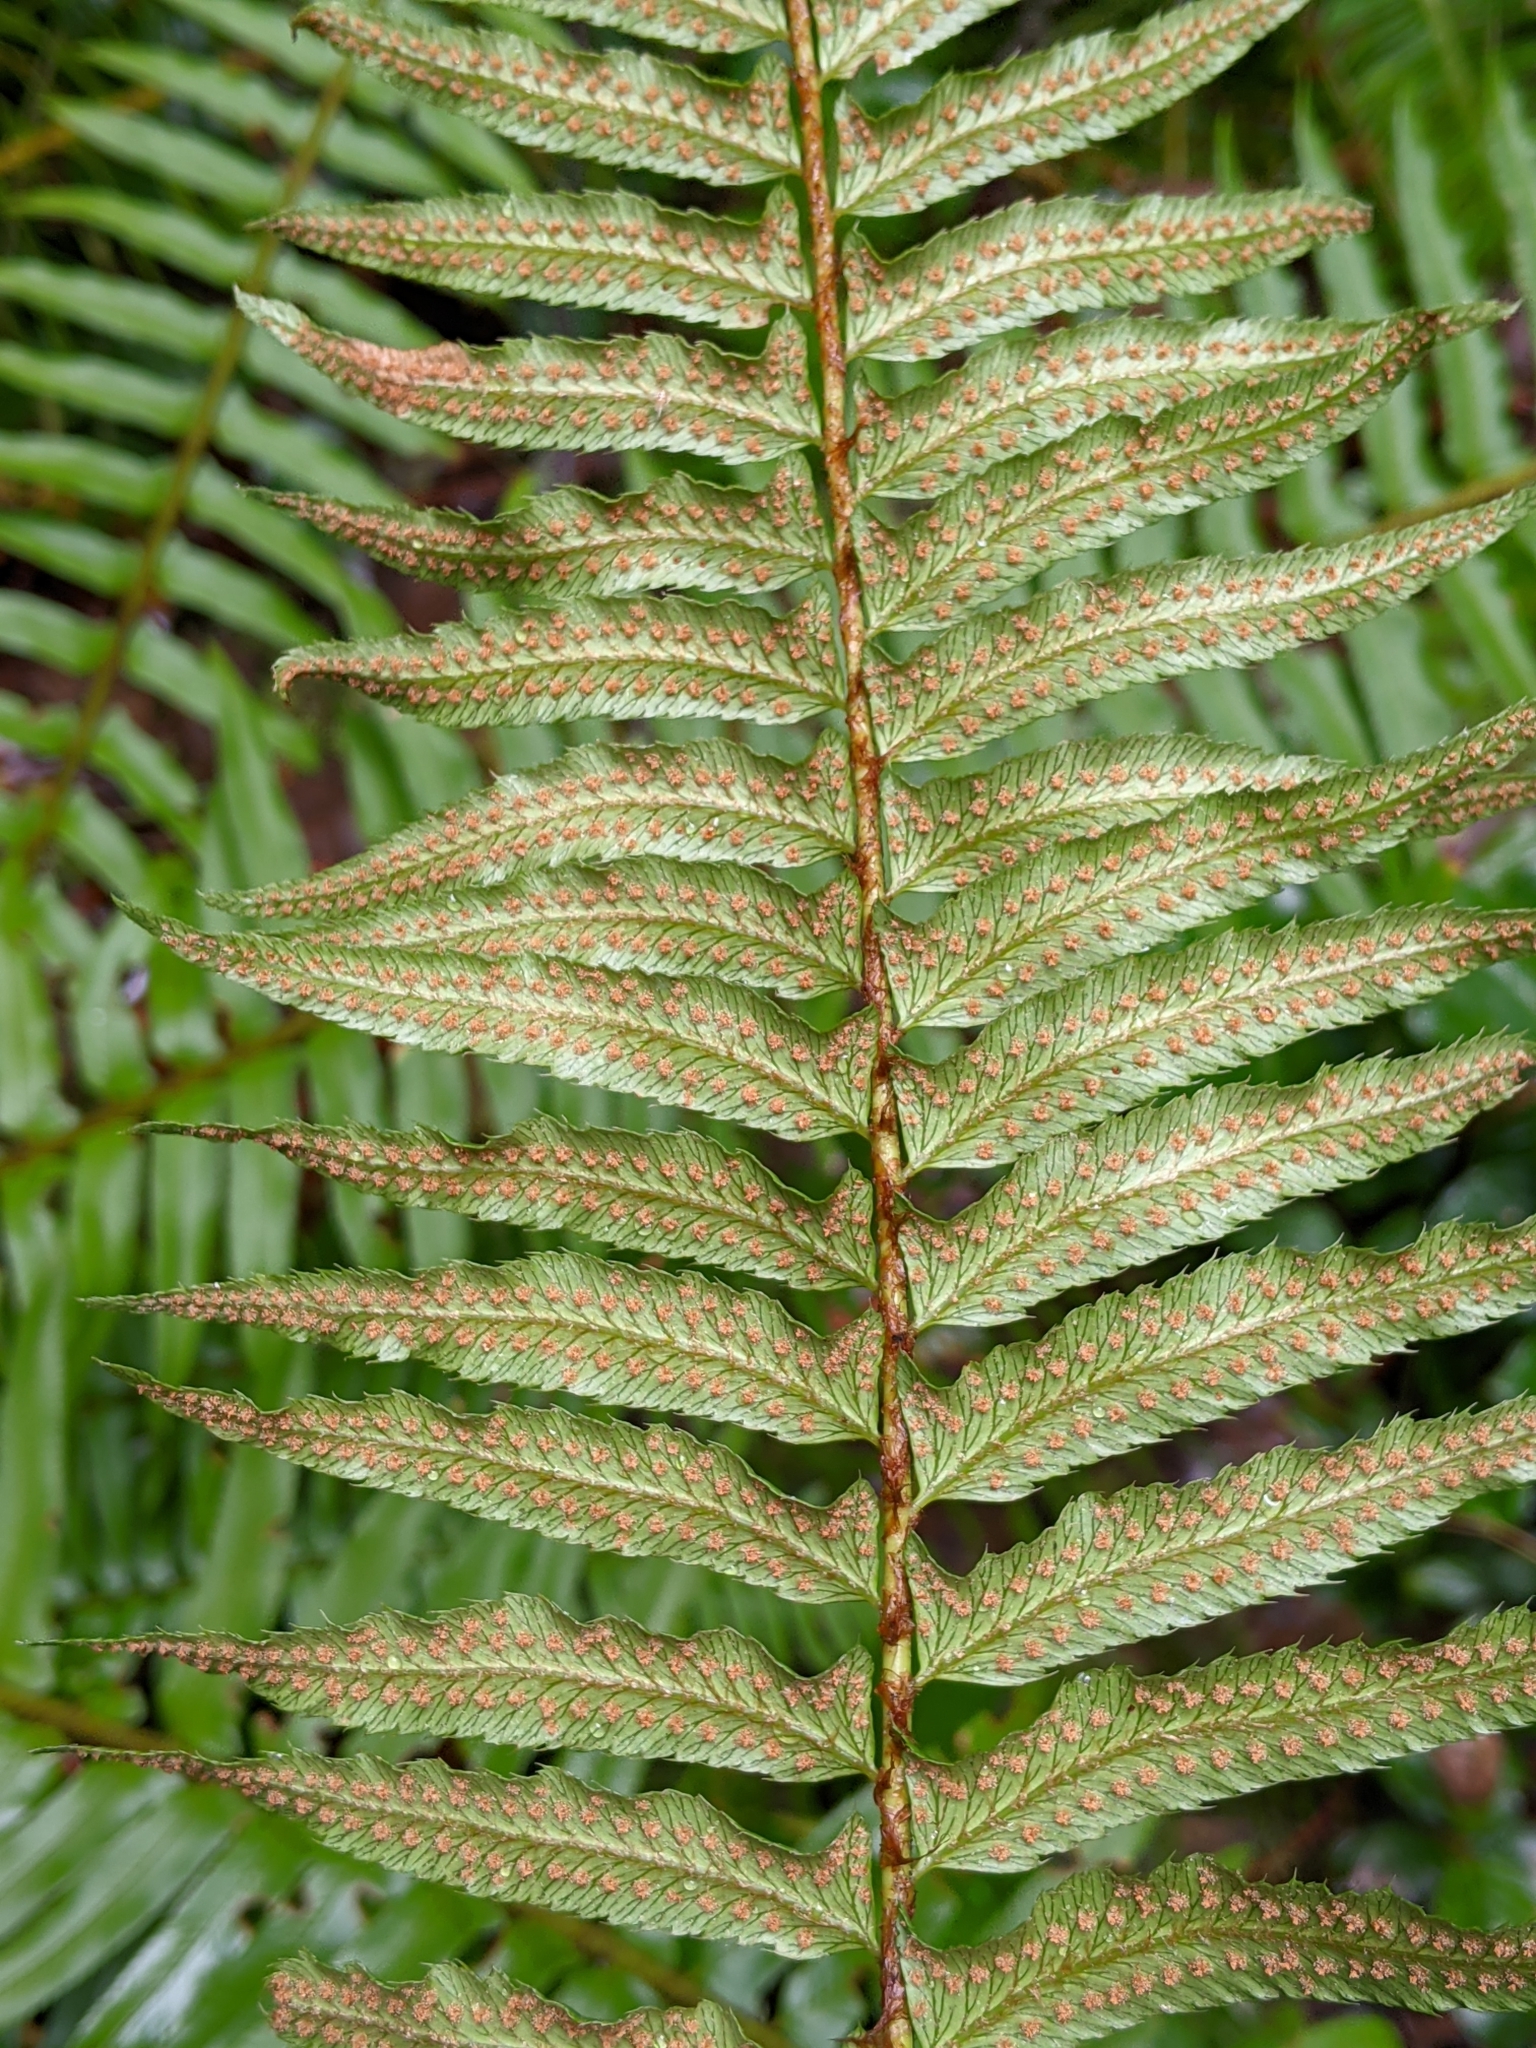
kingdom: Plantae
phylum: Tracheophyta
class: Polypodiopsida
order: Polypodiales
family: Dryopteridaceae
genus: Polystichum
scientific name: Polystichum munitum
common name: Western sword-fern
